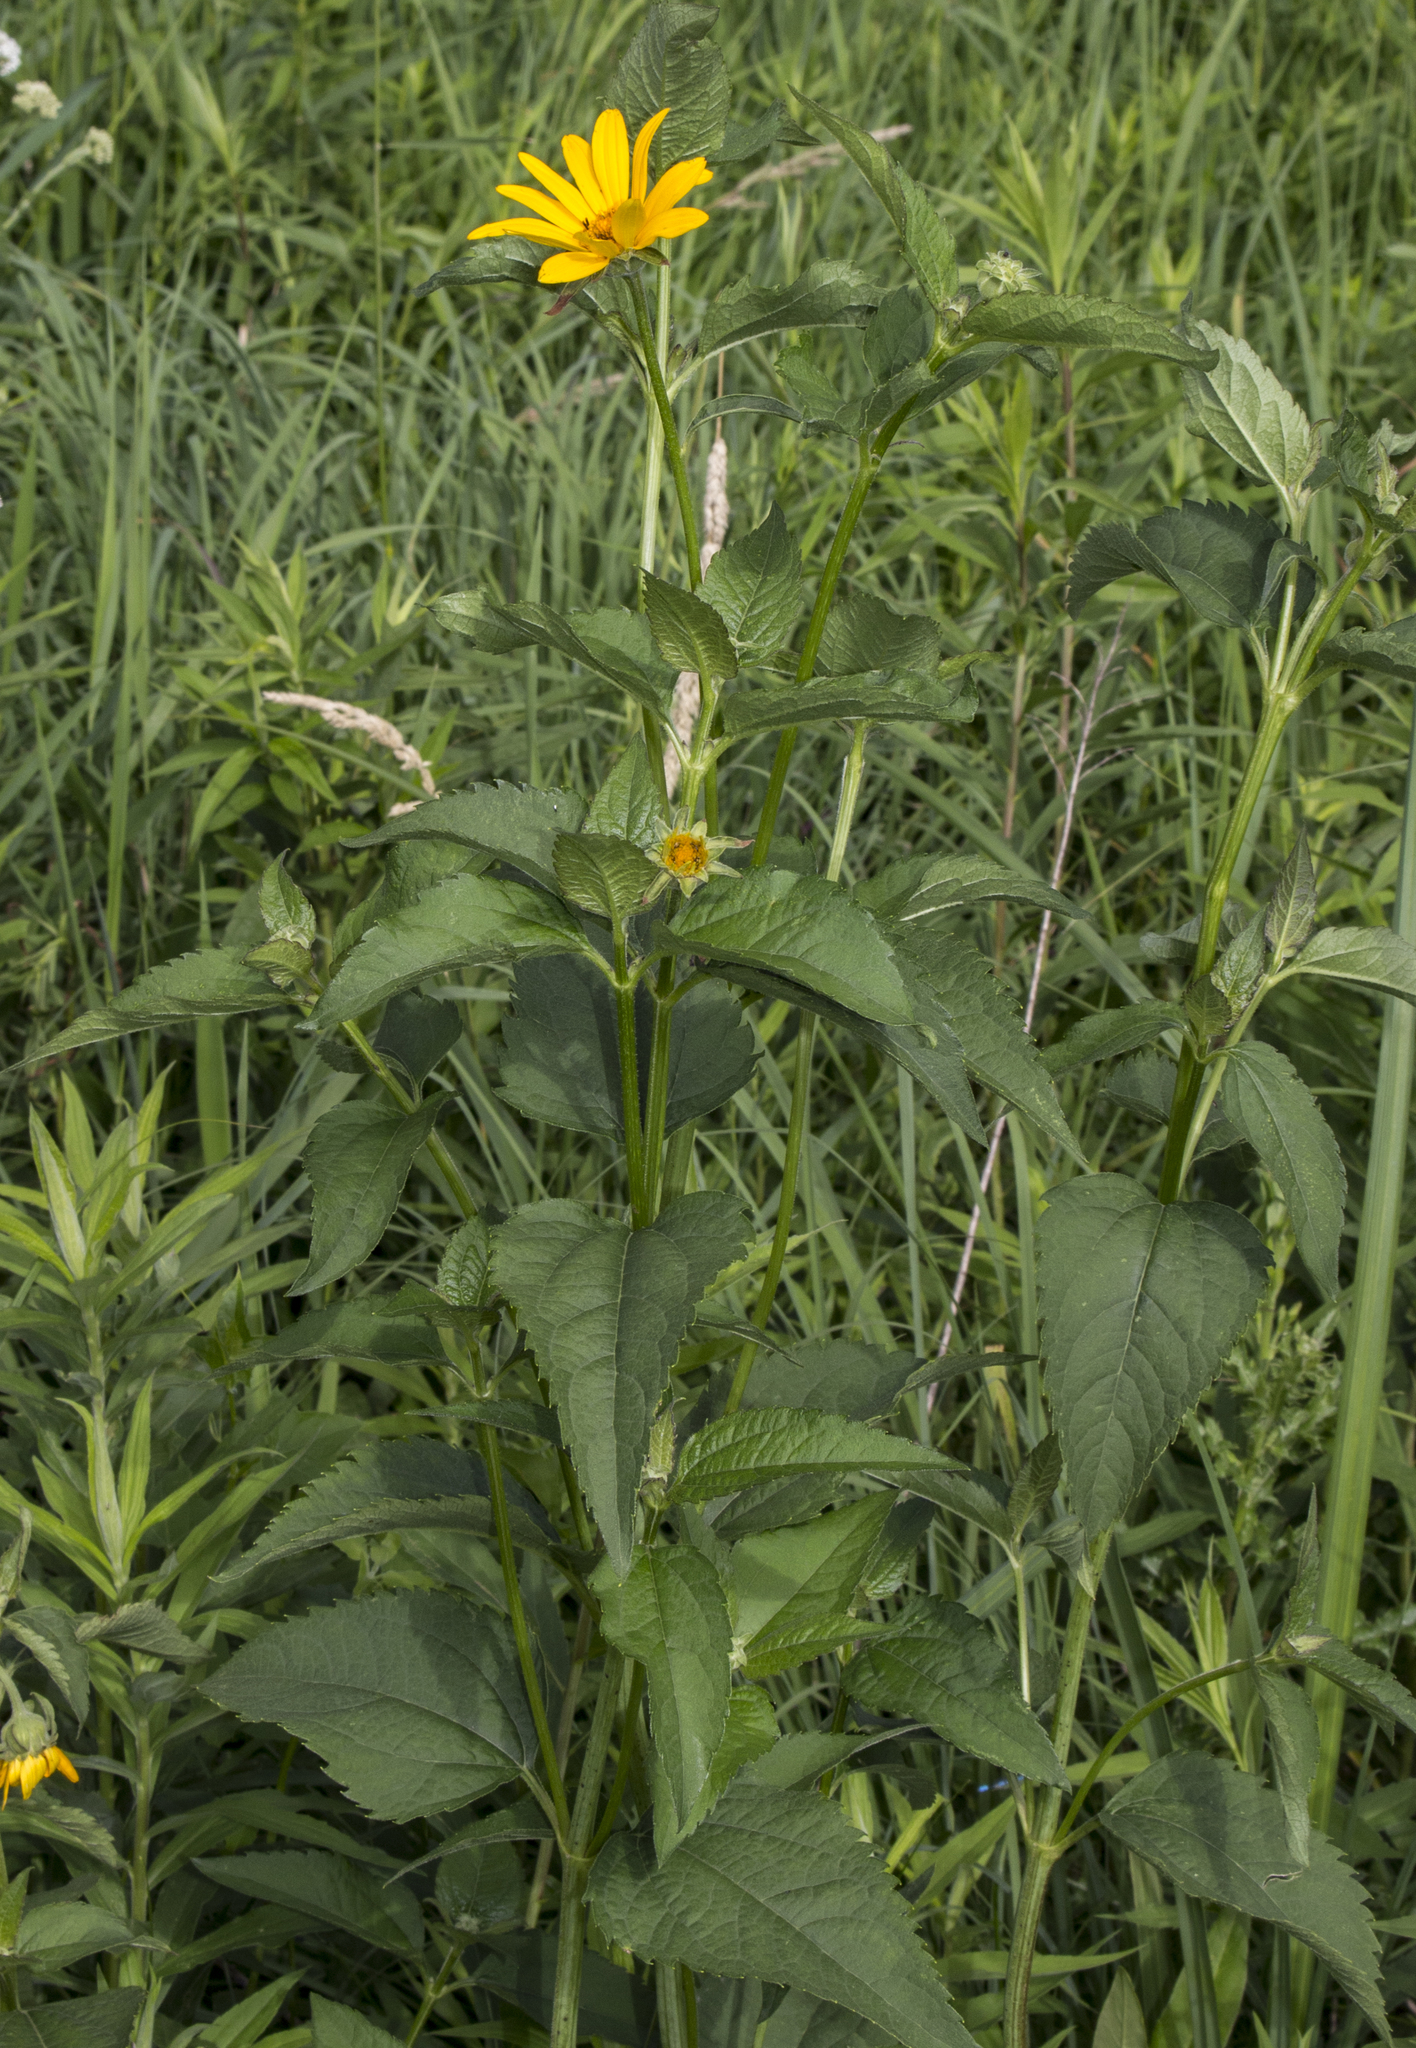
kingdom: Plantae
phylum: Tracheophyta
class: Magnoliopsida
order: Asterales
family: Asteraceae
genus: Heliopsis
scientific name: Heliopsis helianthoides
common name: False sunflower
